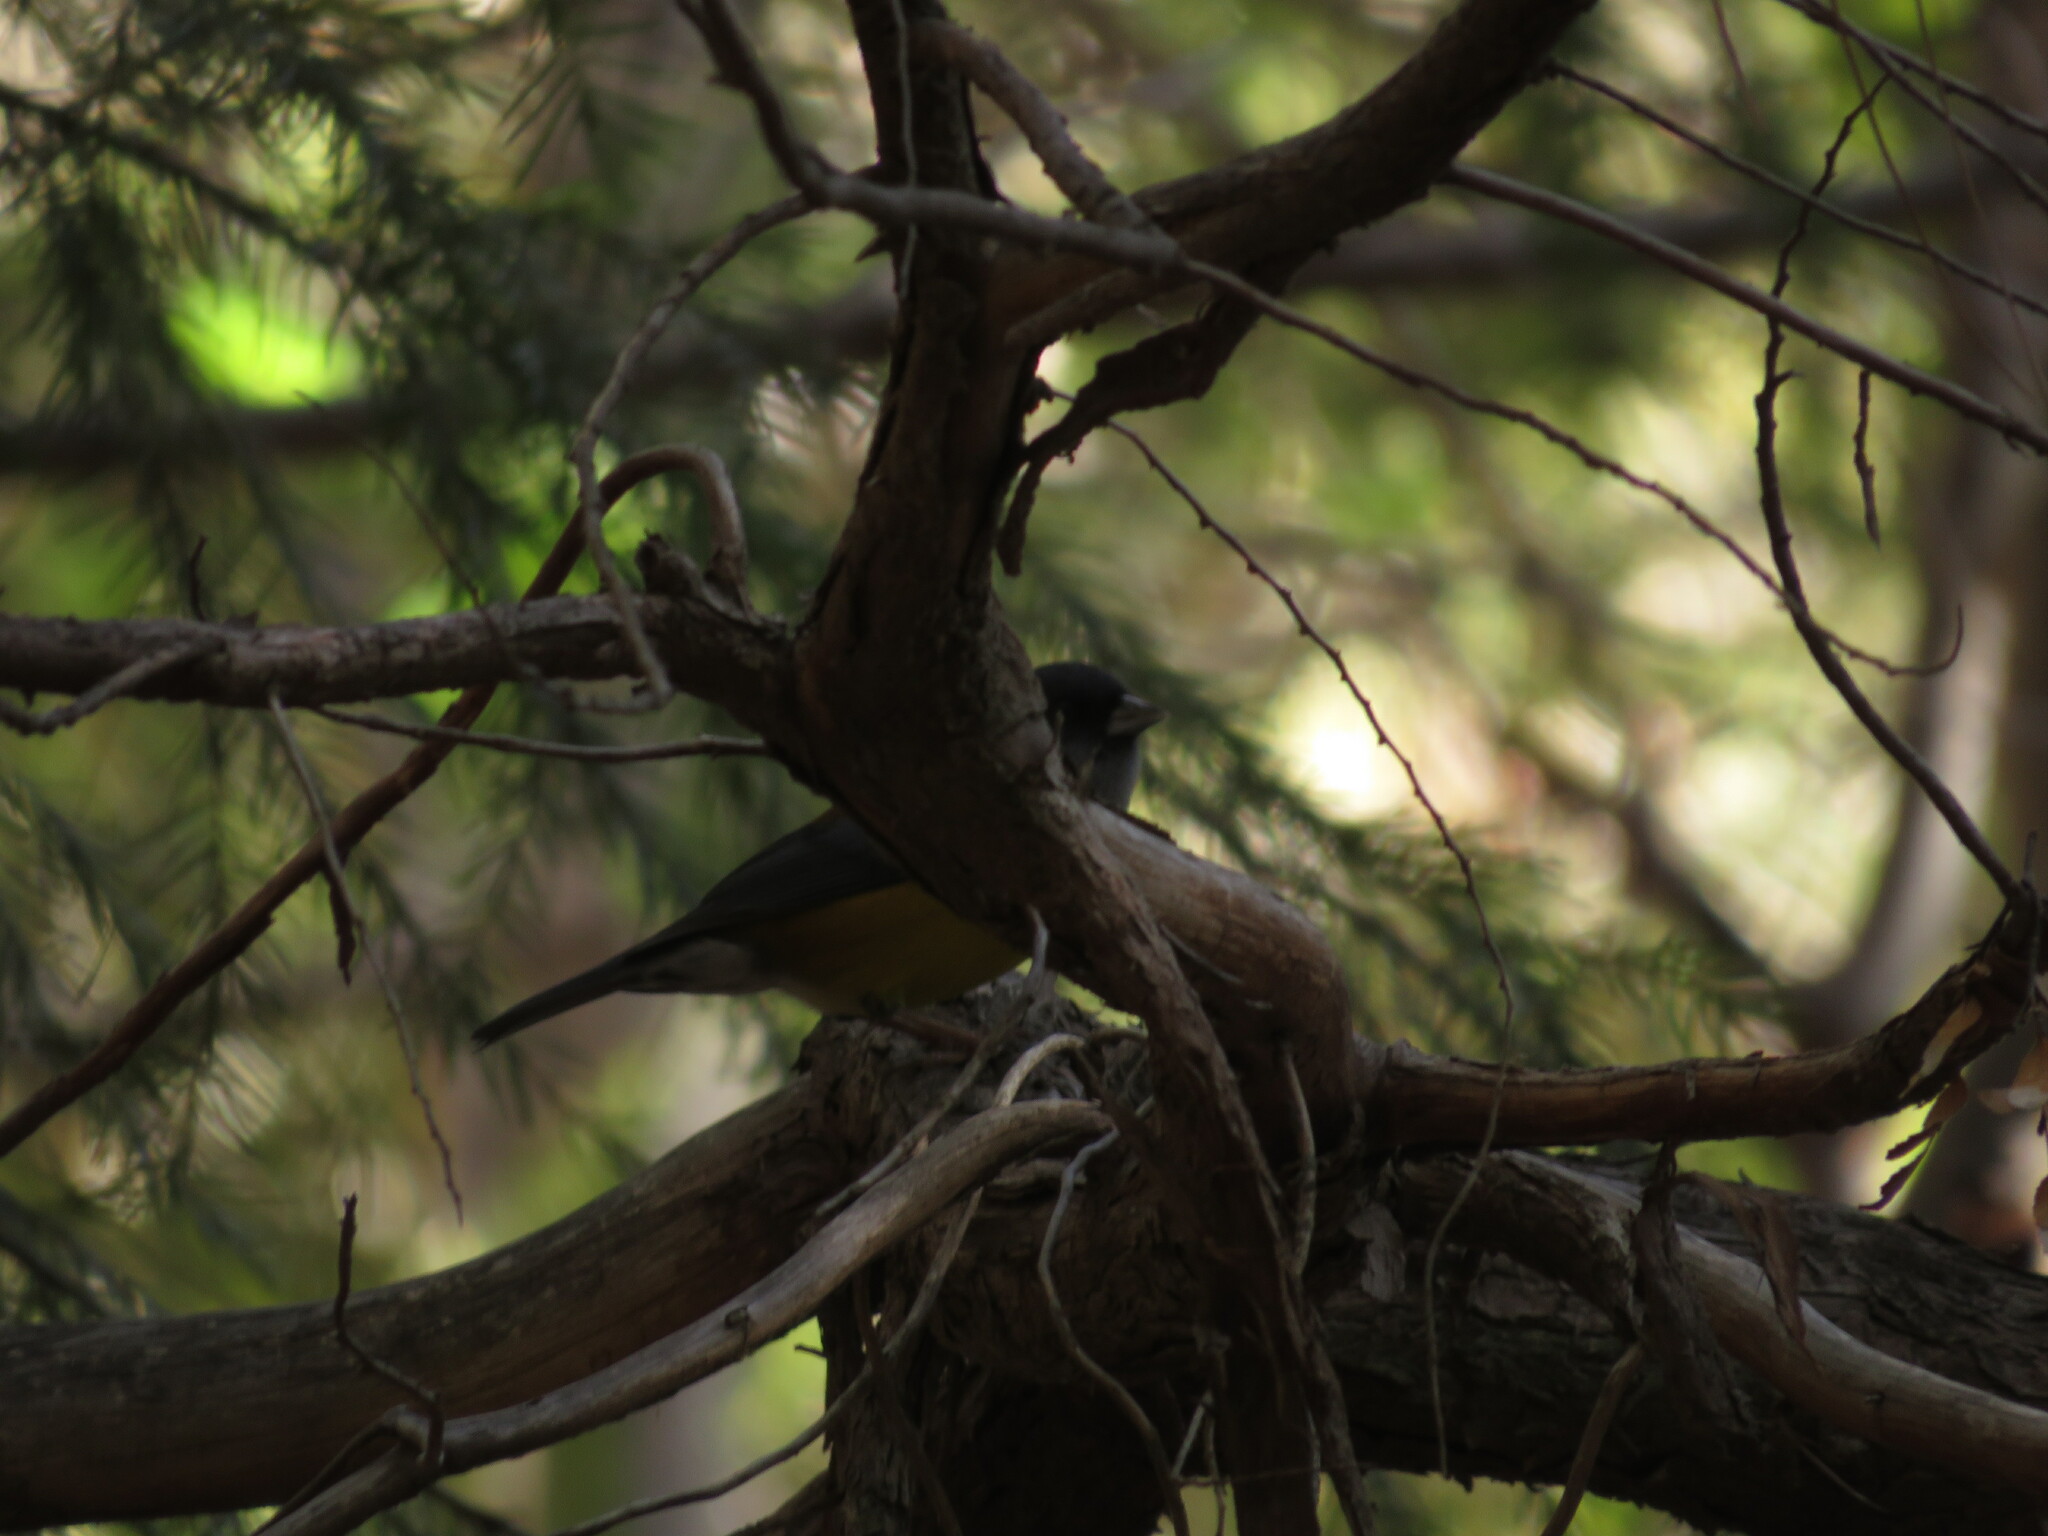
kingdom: Animalia
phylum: Chordata
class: Aves
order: Passeriformes
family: Thraupidae
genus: Phrygilus
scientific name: Phrygilus patagonicus
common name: Patagonian sierra finch
